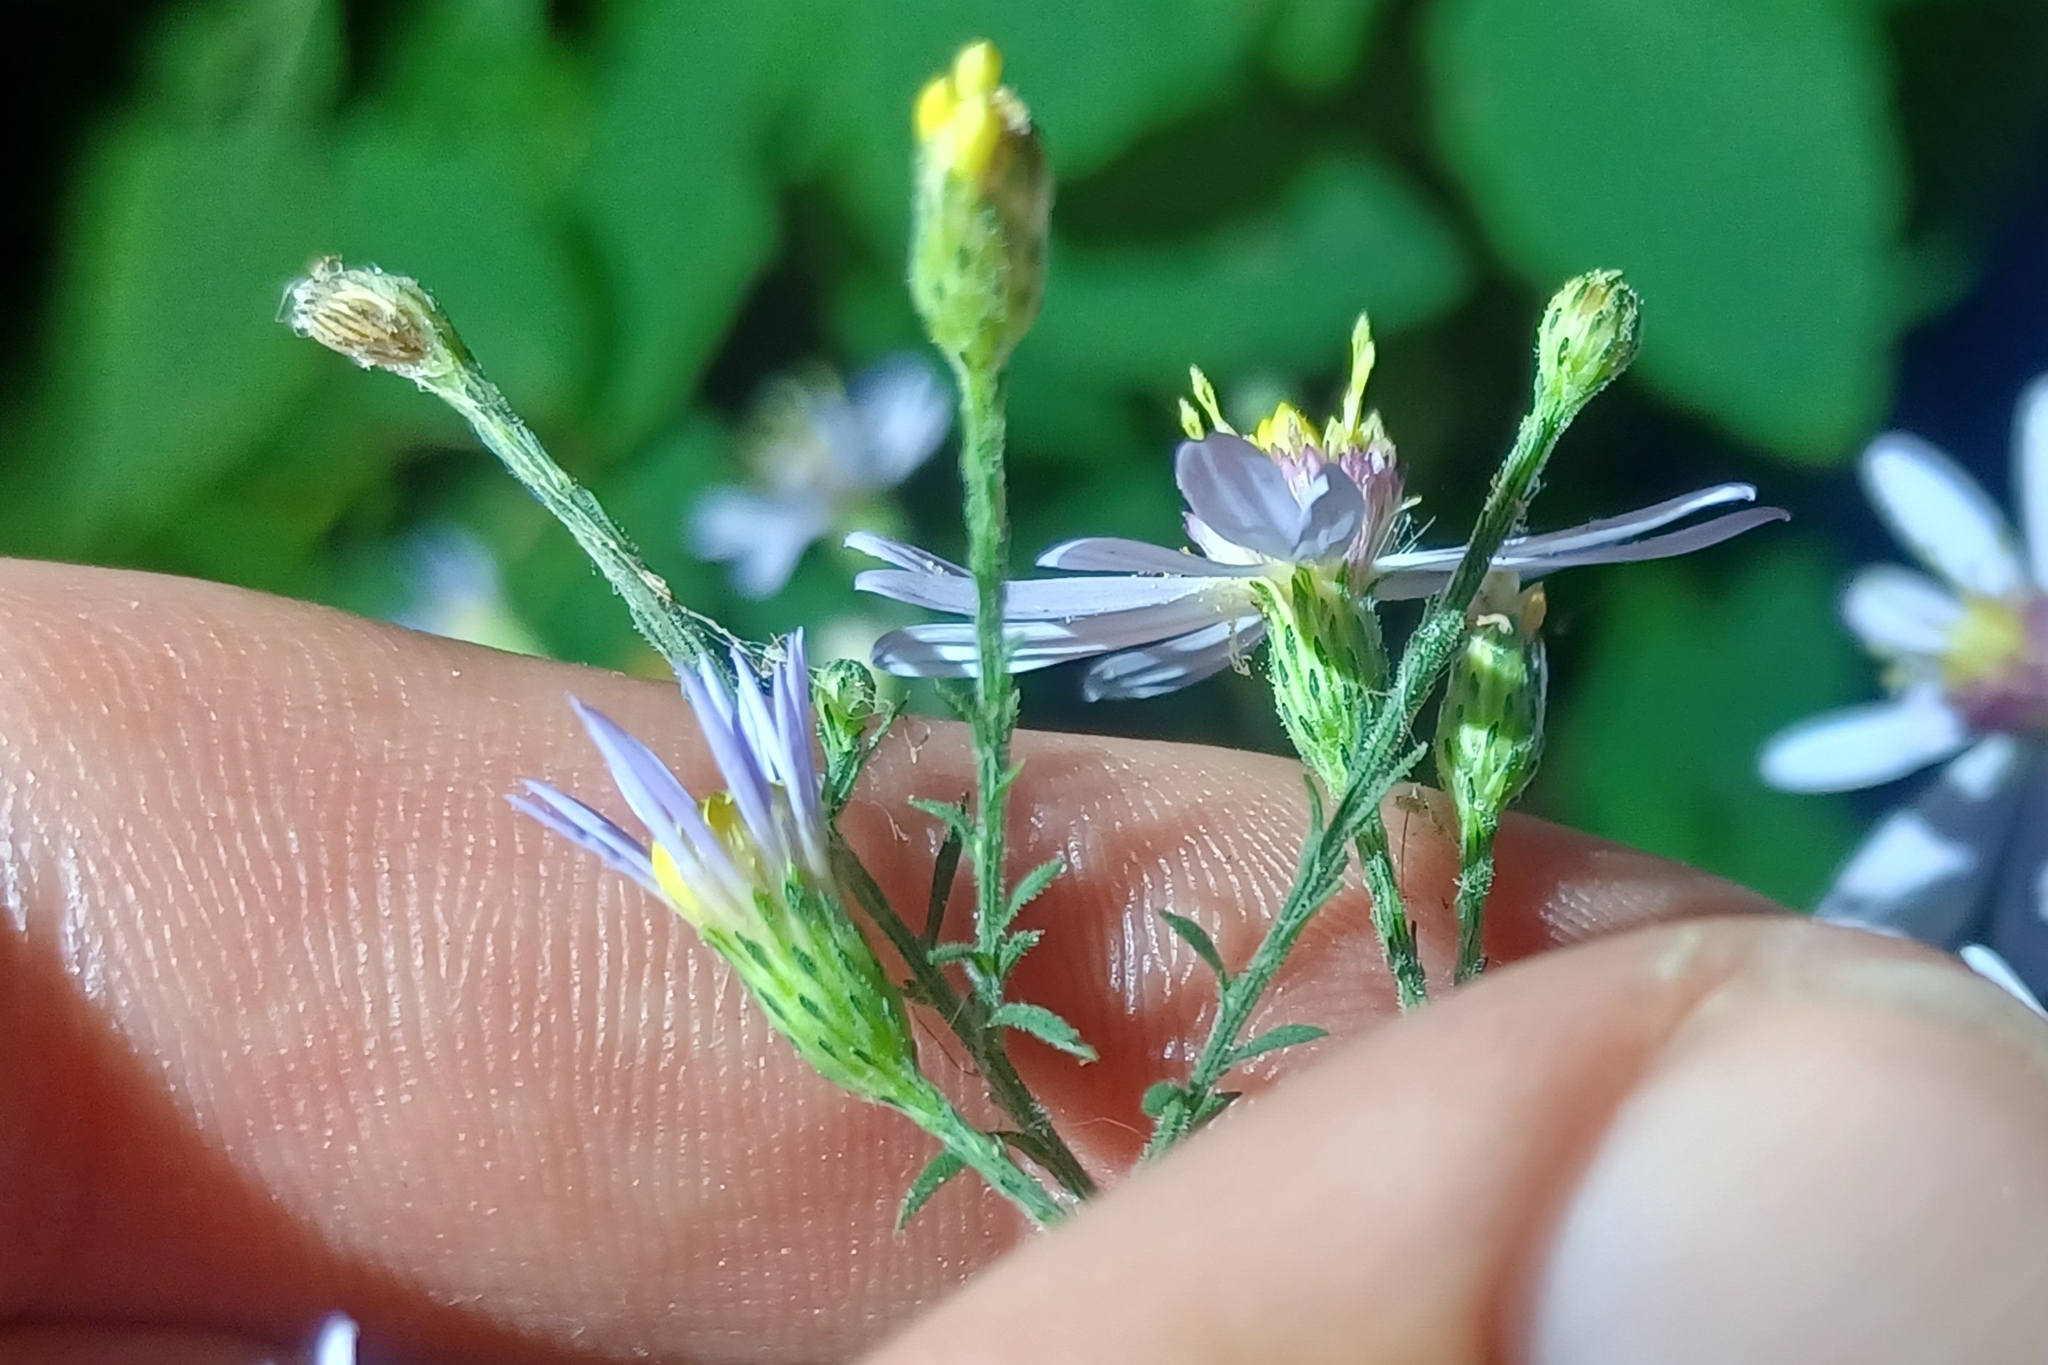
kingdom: Plantae
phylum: Tracheophyta
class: Magnoliopsida
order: Asterales
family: Asteraceae
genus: Symphyotrichum
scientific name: Symphyotrichum shortii
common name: Short's aster
